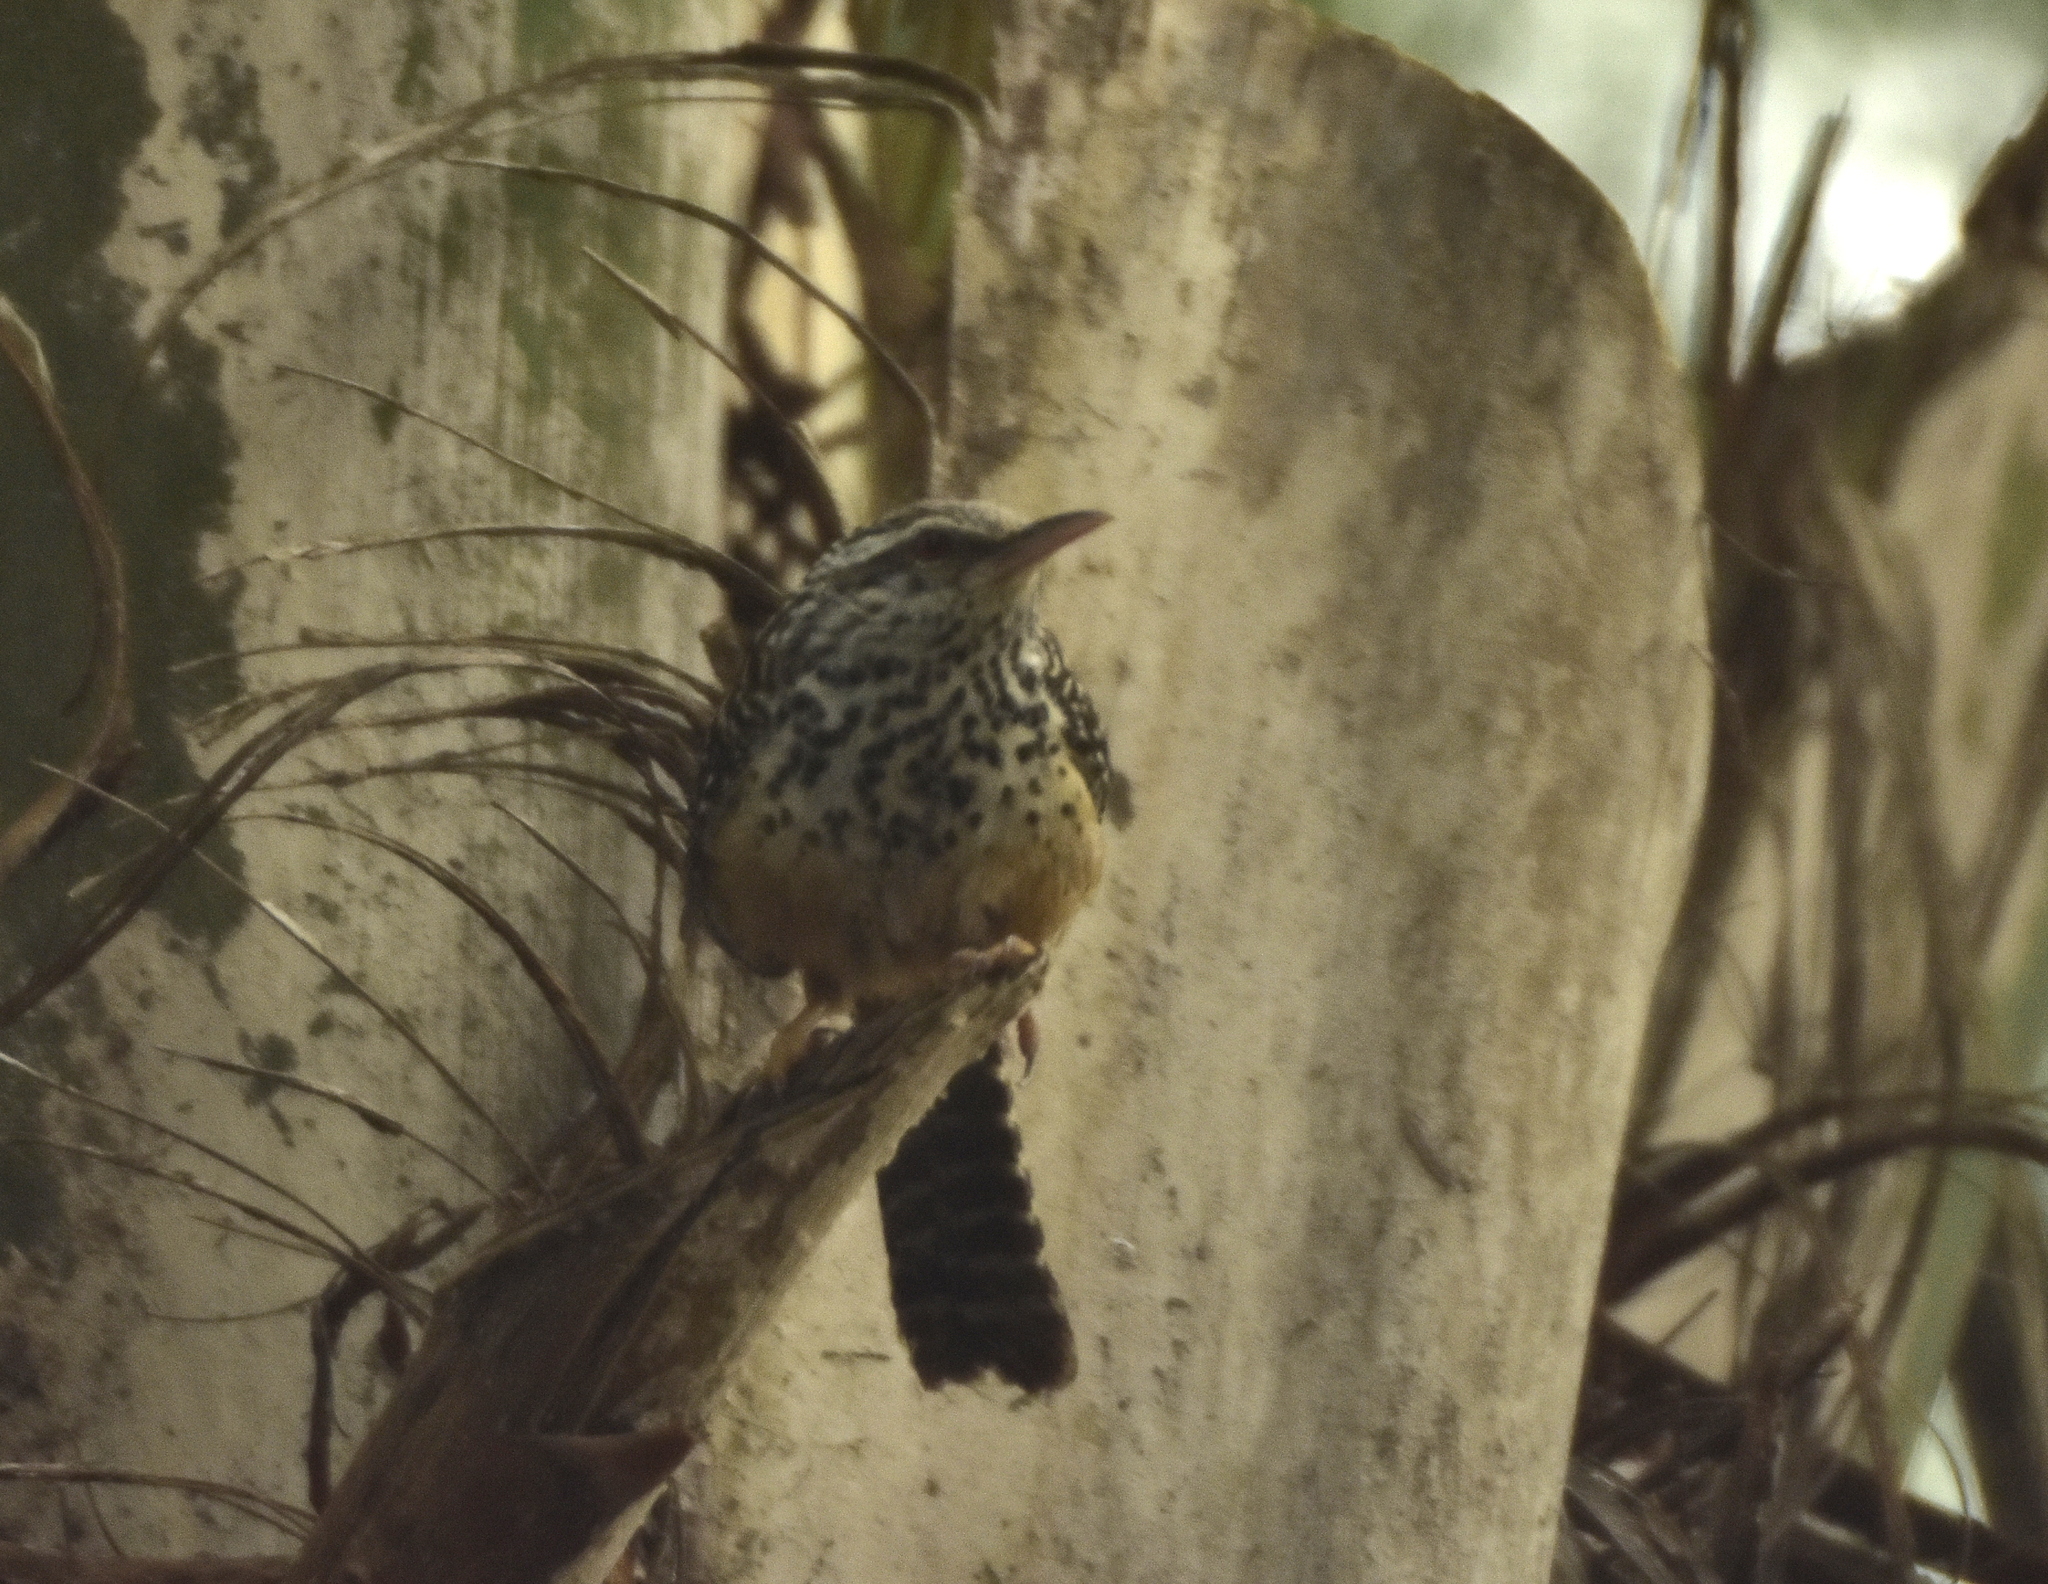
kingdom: Animalia
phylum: Chordata
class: Aves
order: Passeriformes
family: Troglodytidae
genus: Campylorhynchus
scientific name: Campylorhynchus zonatus
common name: Band-backed wren
